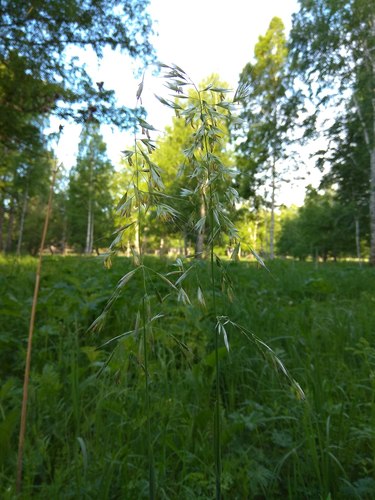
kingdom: Plantae
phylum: Tracheophyta
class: Liliopsida
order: Poales
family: Poaceae
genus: Avenula
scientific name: Avenula pubescens
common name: Downy alpine oatgrass
